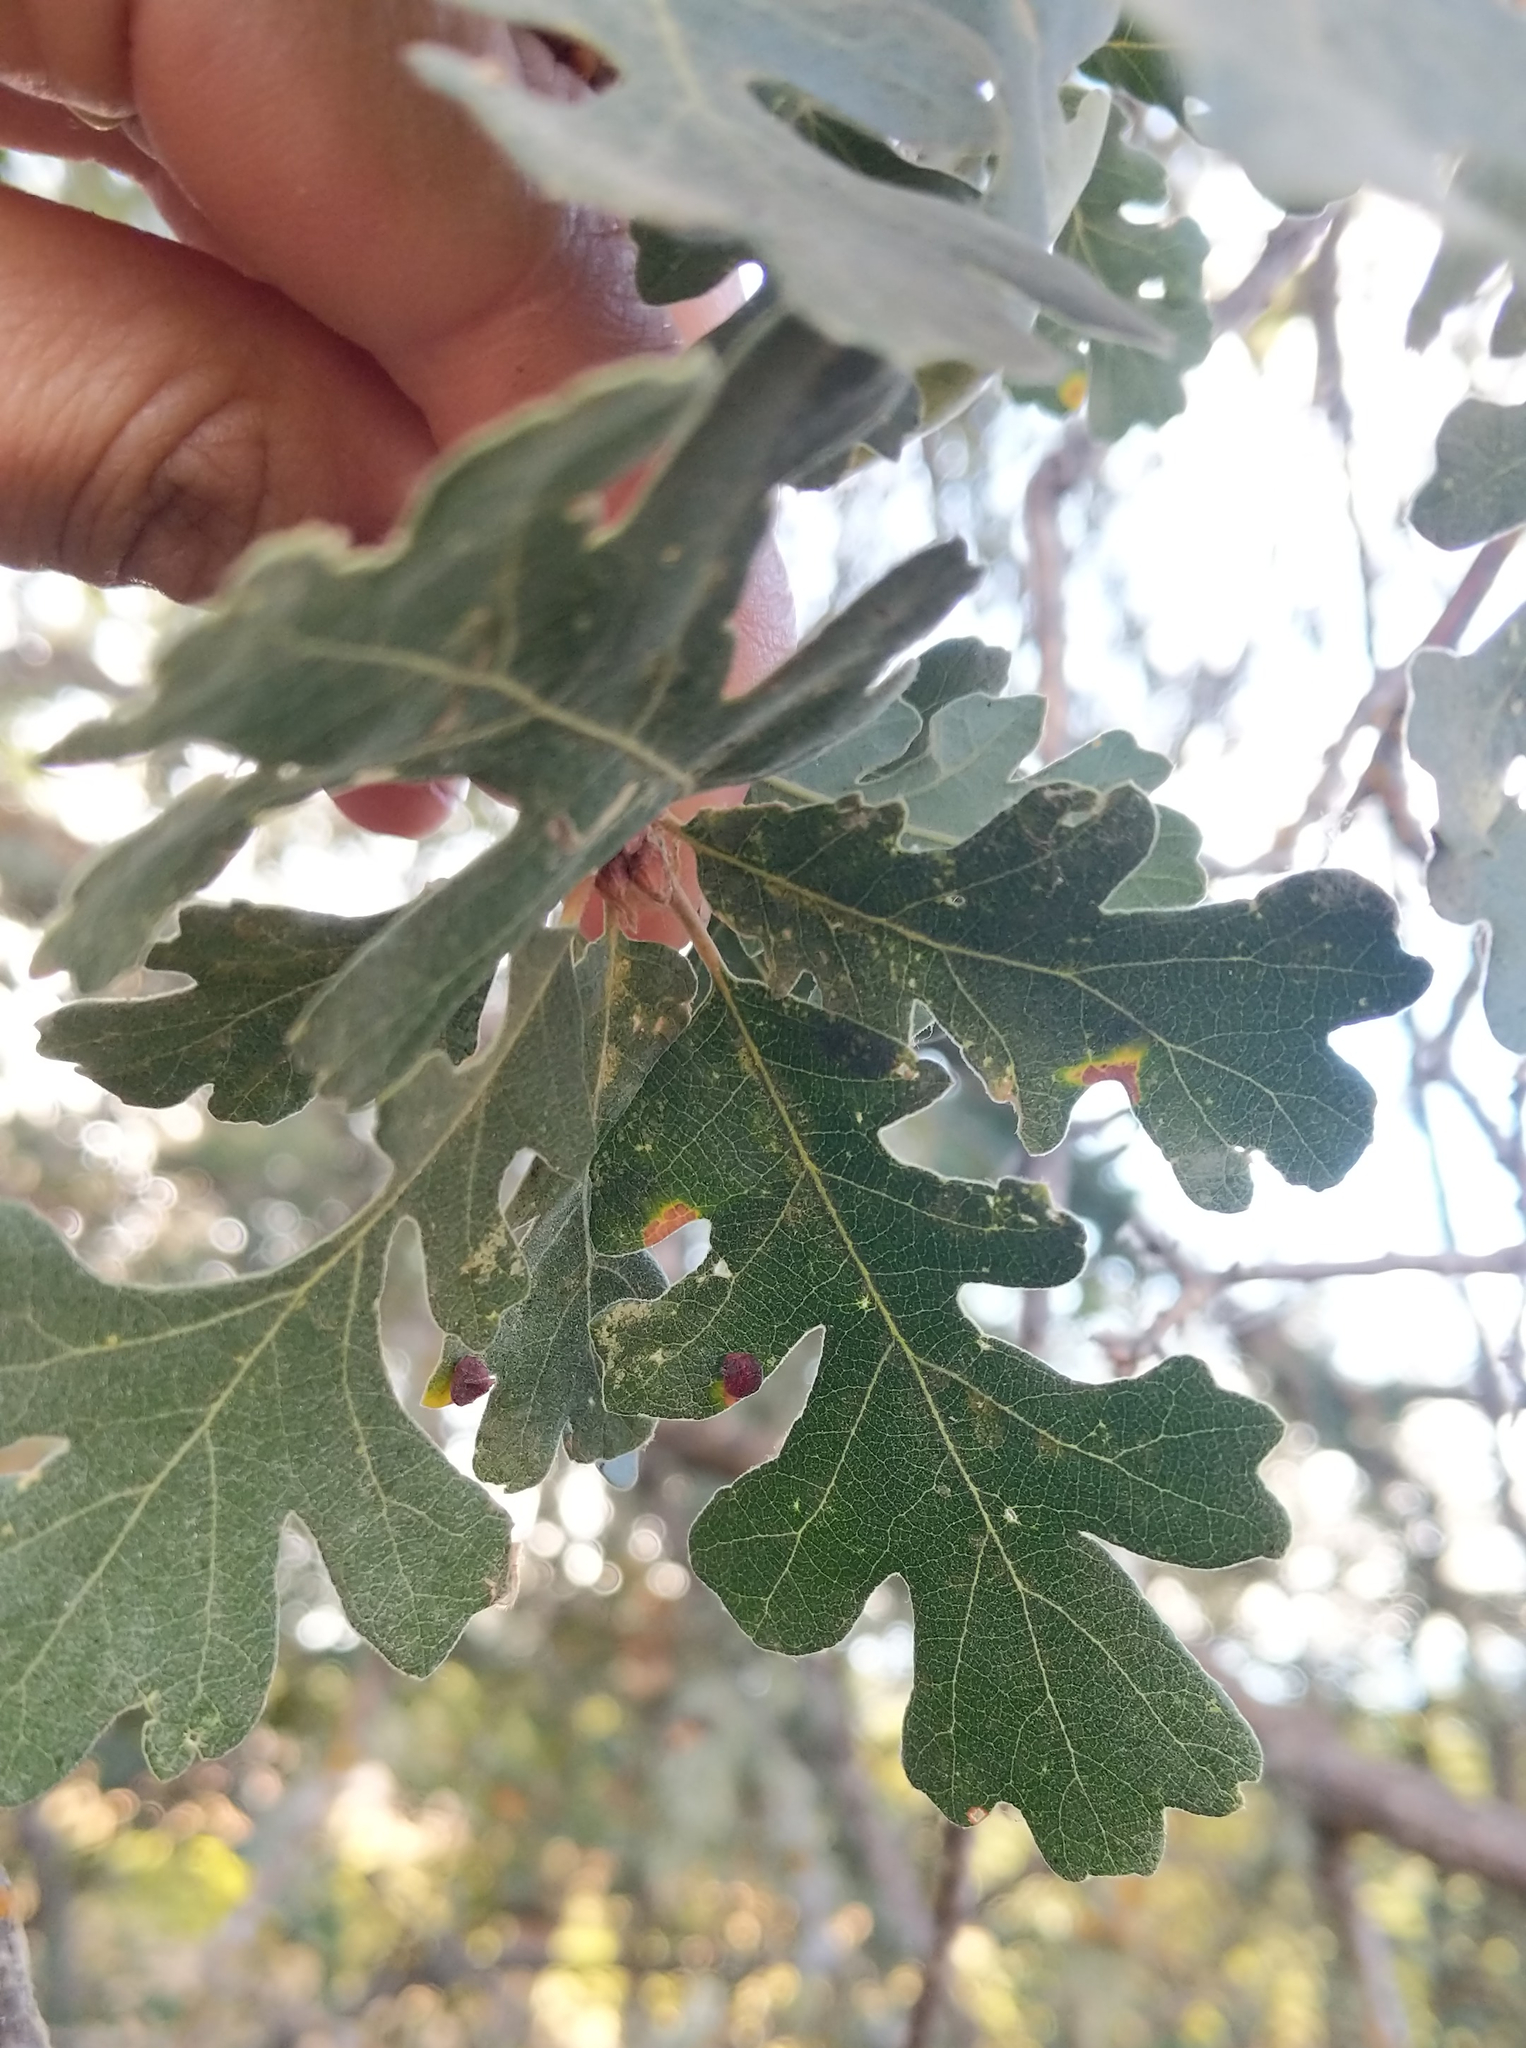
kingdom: Animalia
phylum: Arthropoda
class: Insecta
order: Hymenoptera
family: Cynipidae
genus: Andricus
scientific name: Andricus
